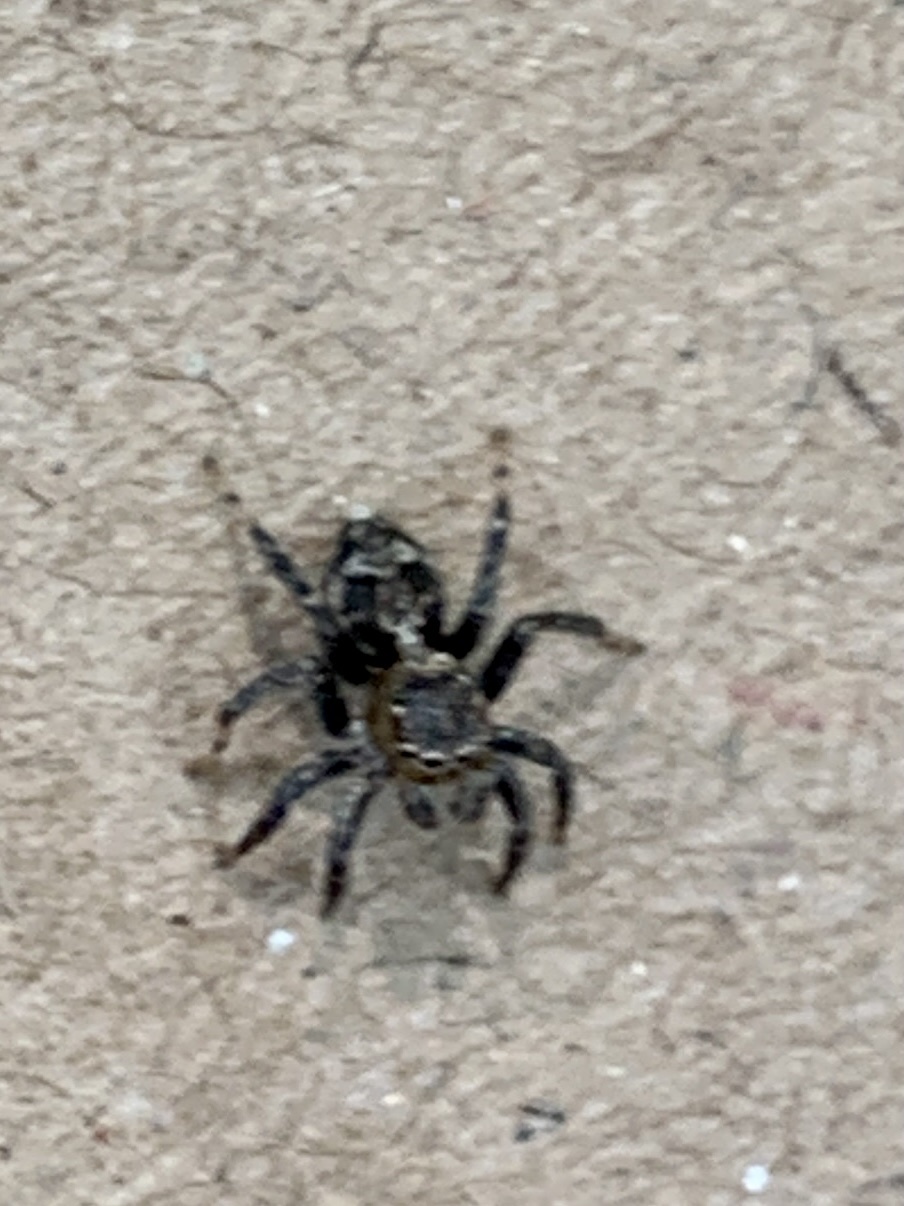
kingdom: Animalia
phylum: Arthropoda
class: Arachnida
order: Araneae
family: Salticidae
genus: Naphrys
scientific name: Naphrys pulex
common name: Flea jumping spider
